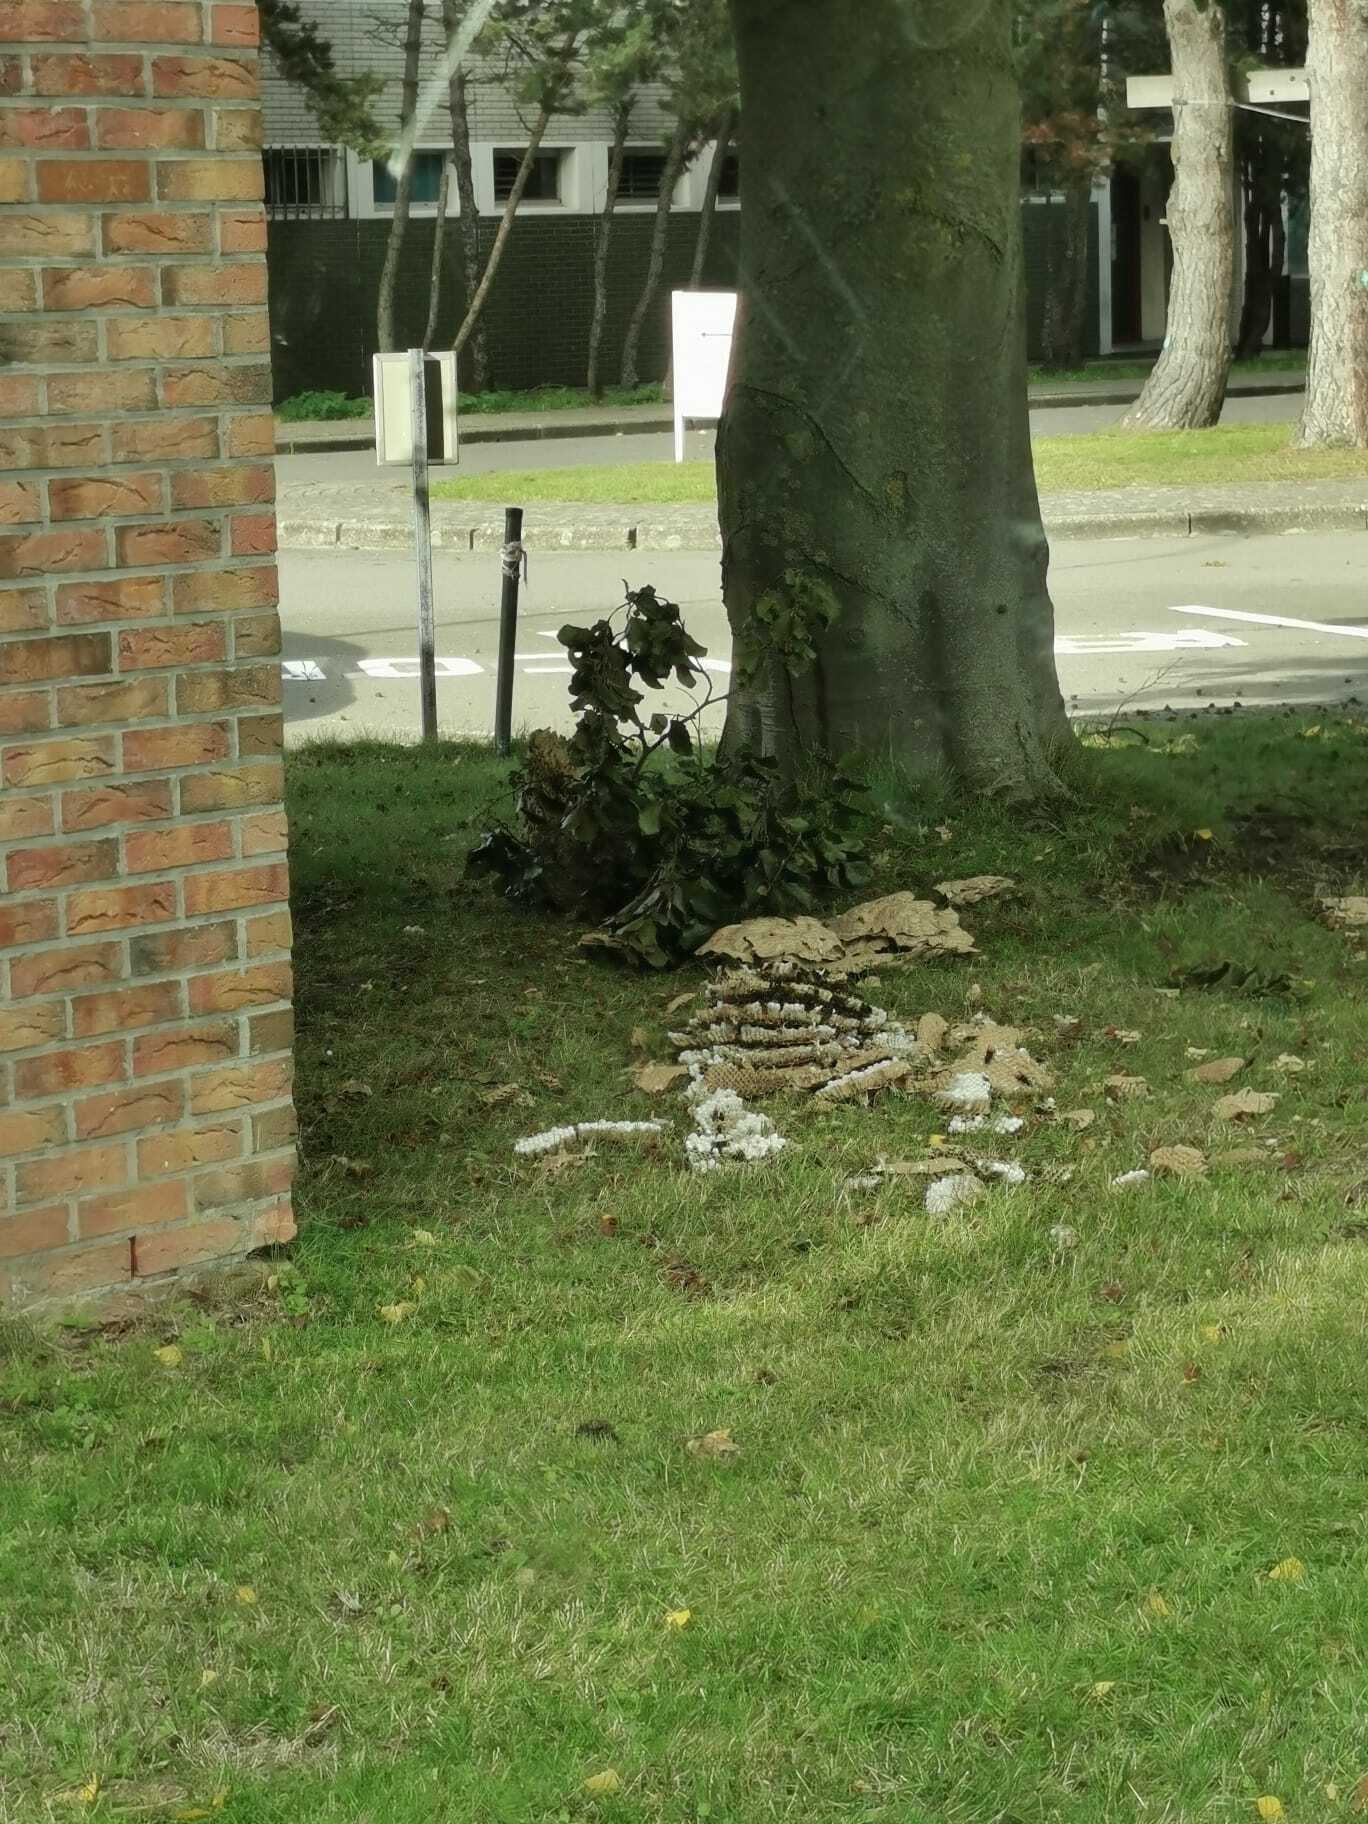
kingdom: Animalia
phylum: Arthropoda
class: Insecta
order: Hymenoptera
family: Vespidae
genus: Vespa
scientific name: Vespa velutina
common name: Asian hornet
